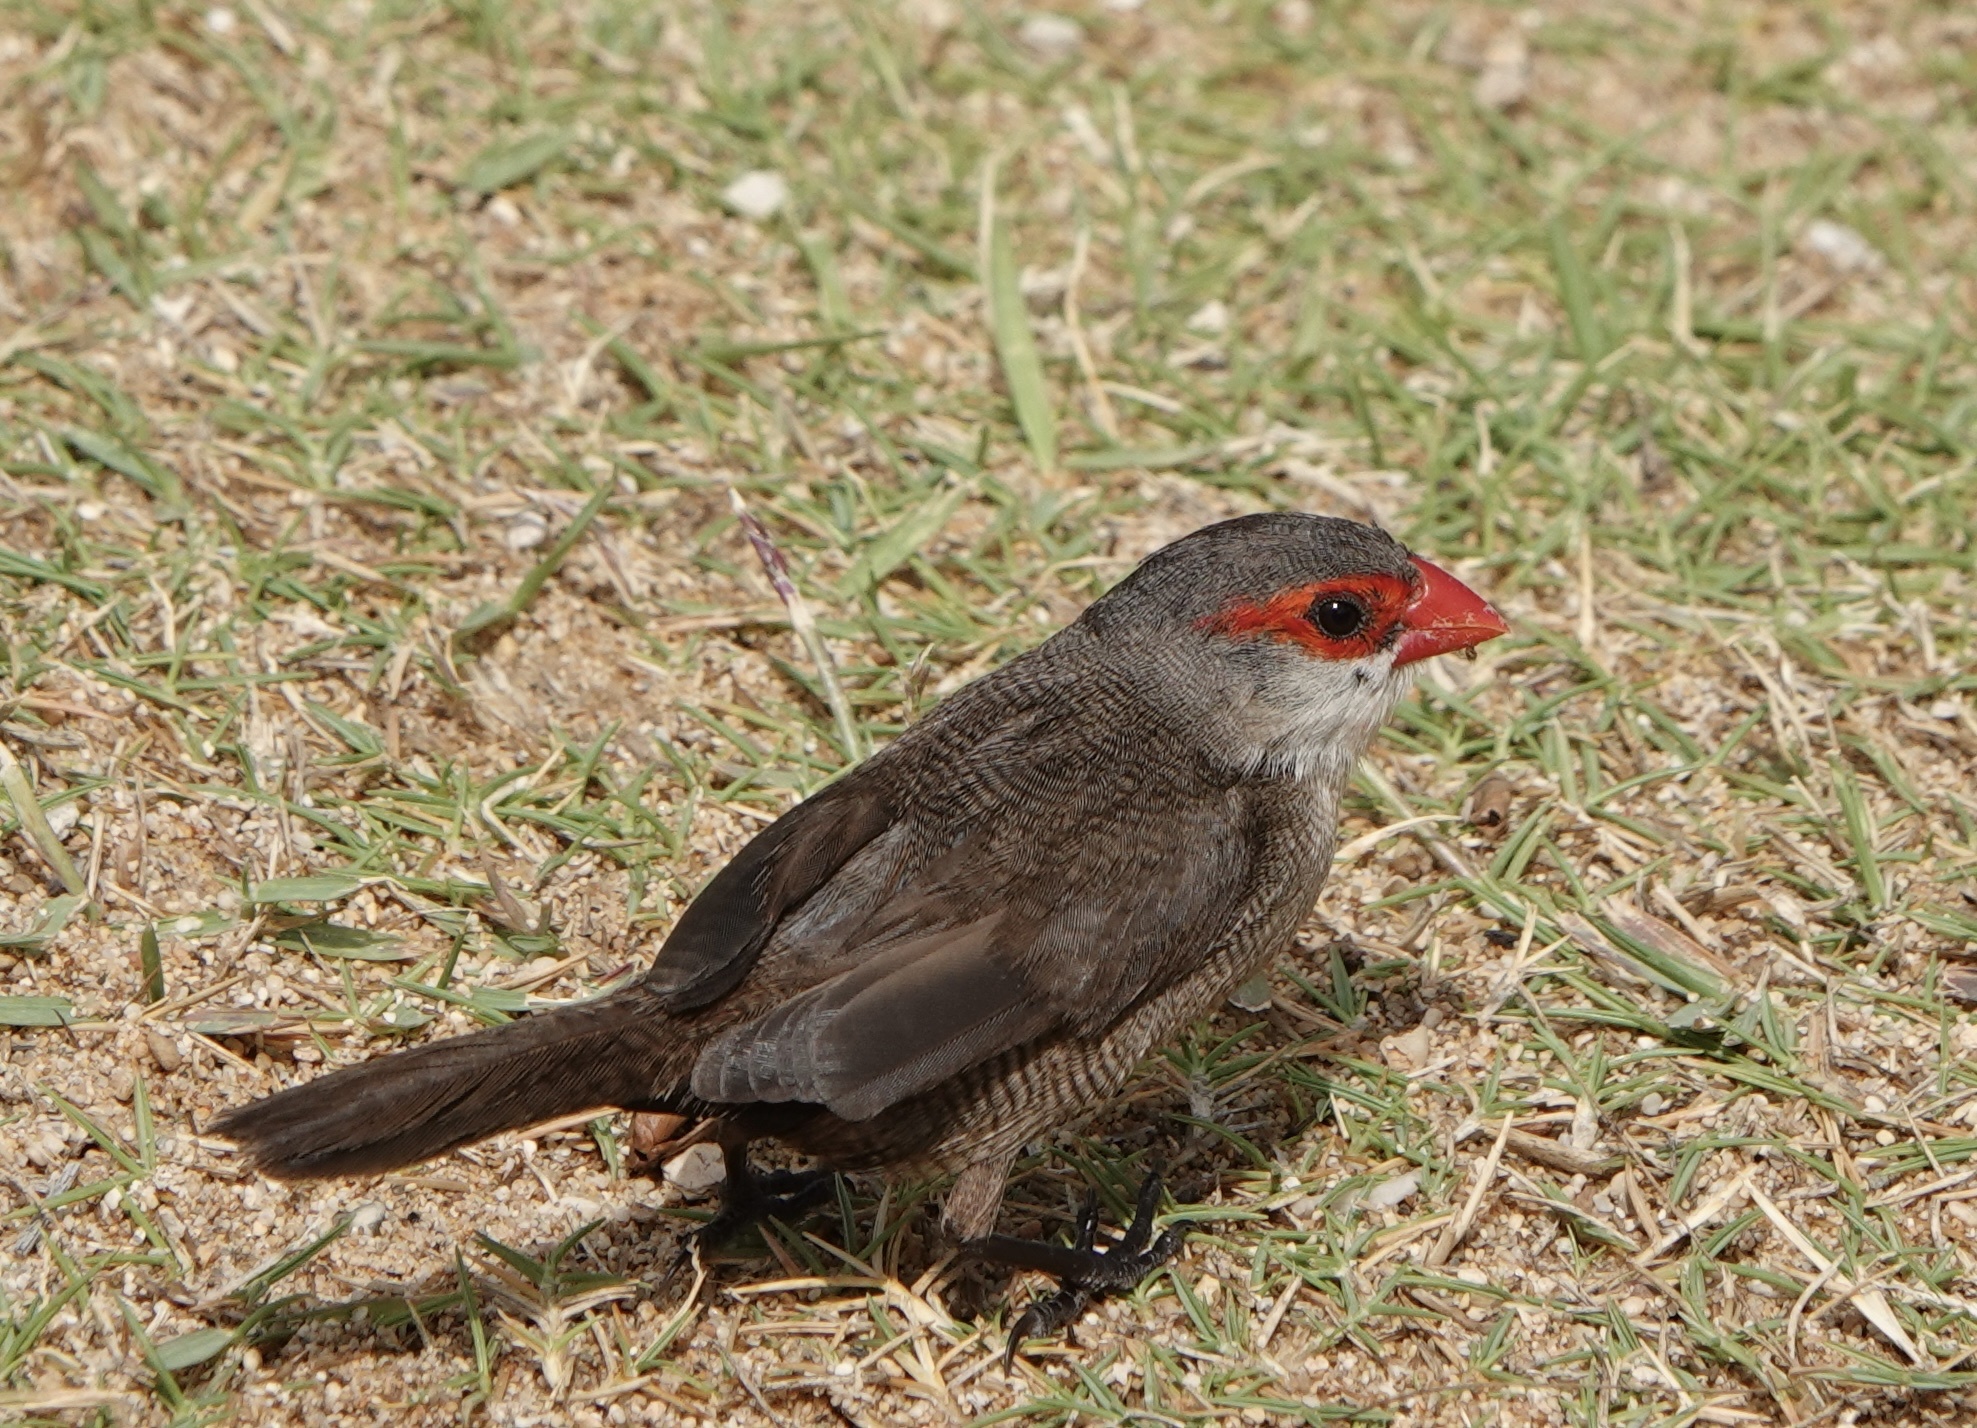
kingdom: Animalia
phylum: Chordata
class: Aves
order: Passeriformes
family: Estrildidae
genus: Estrilda
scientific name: Estrilda astrild
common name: Common waxbill
